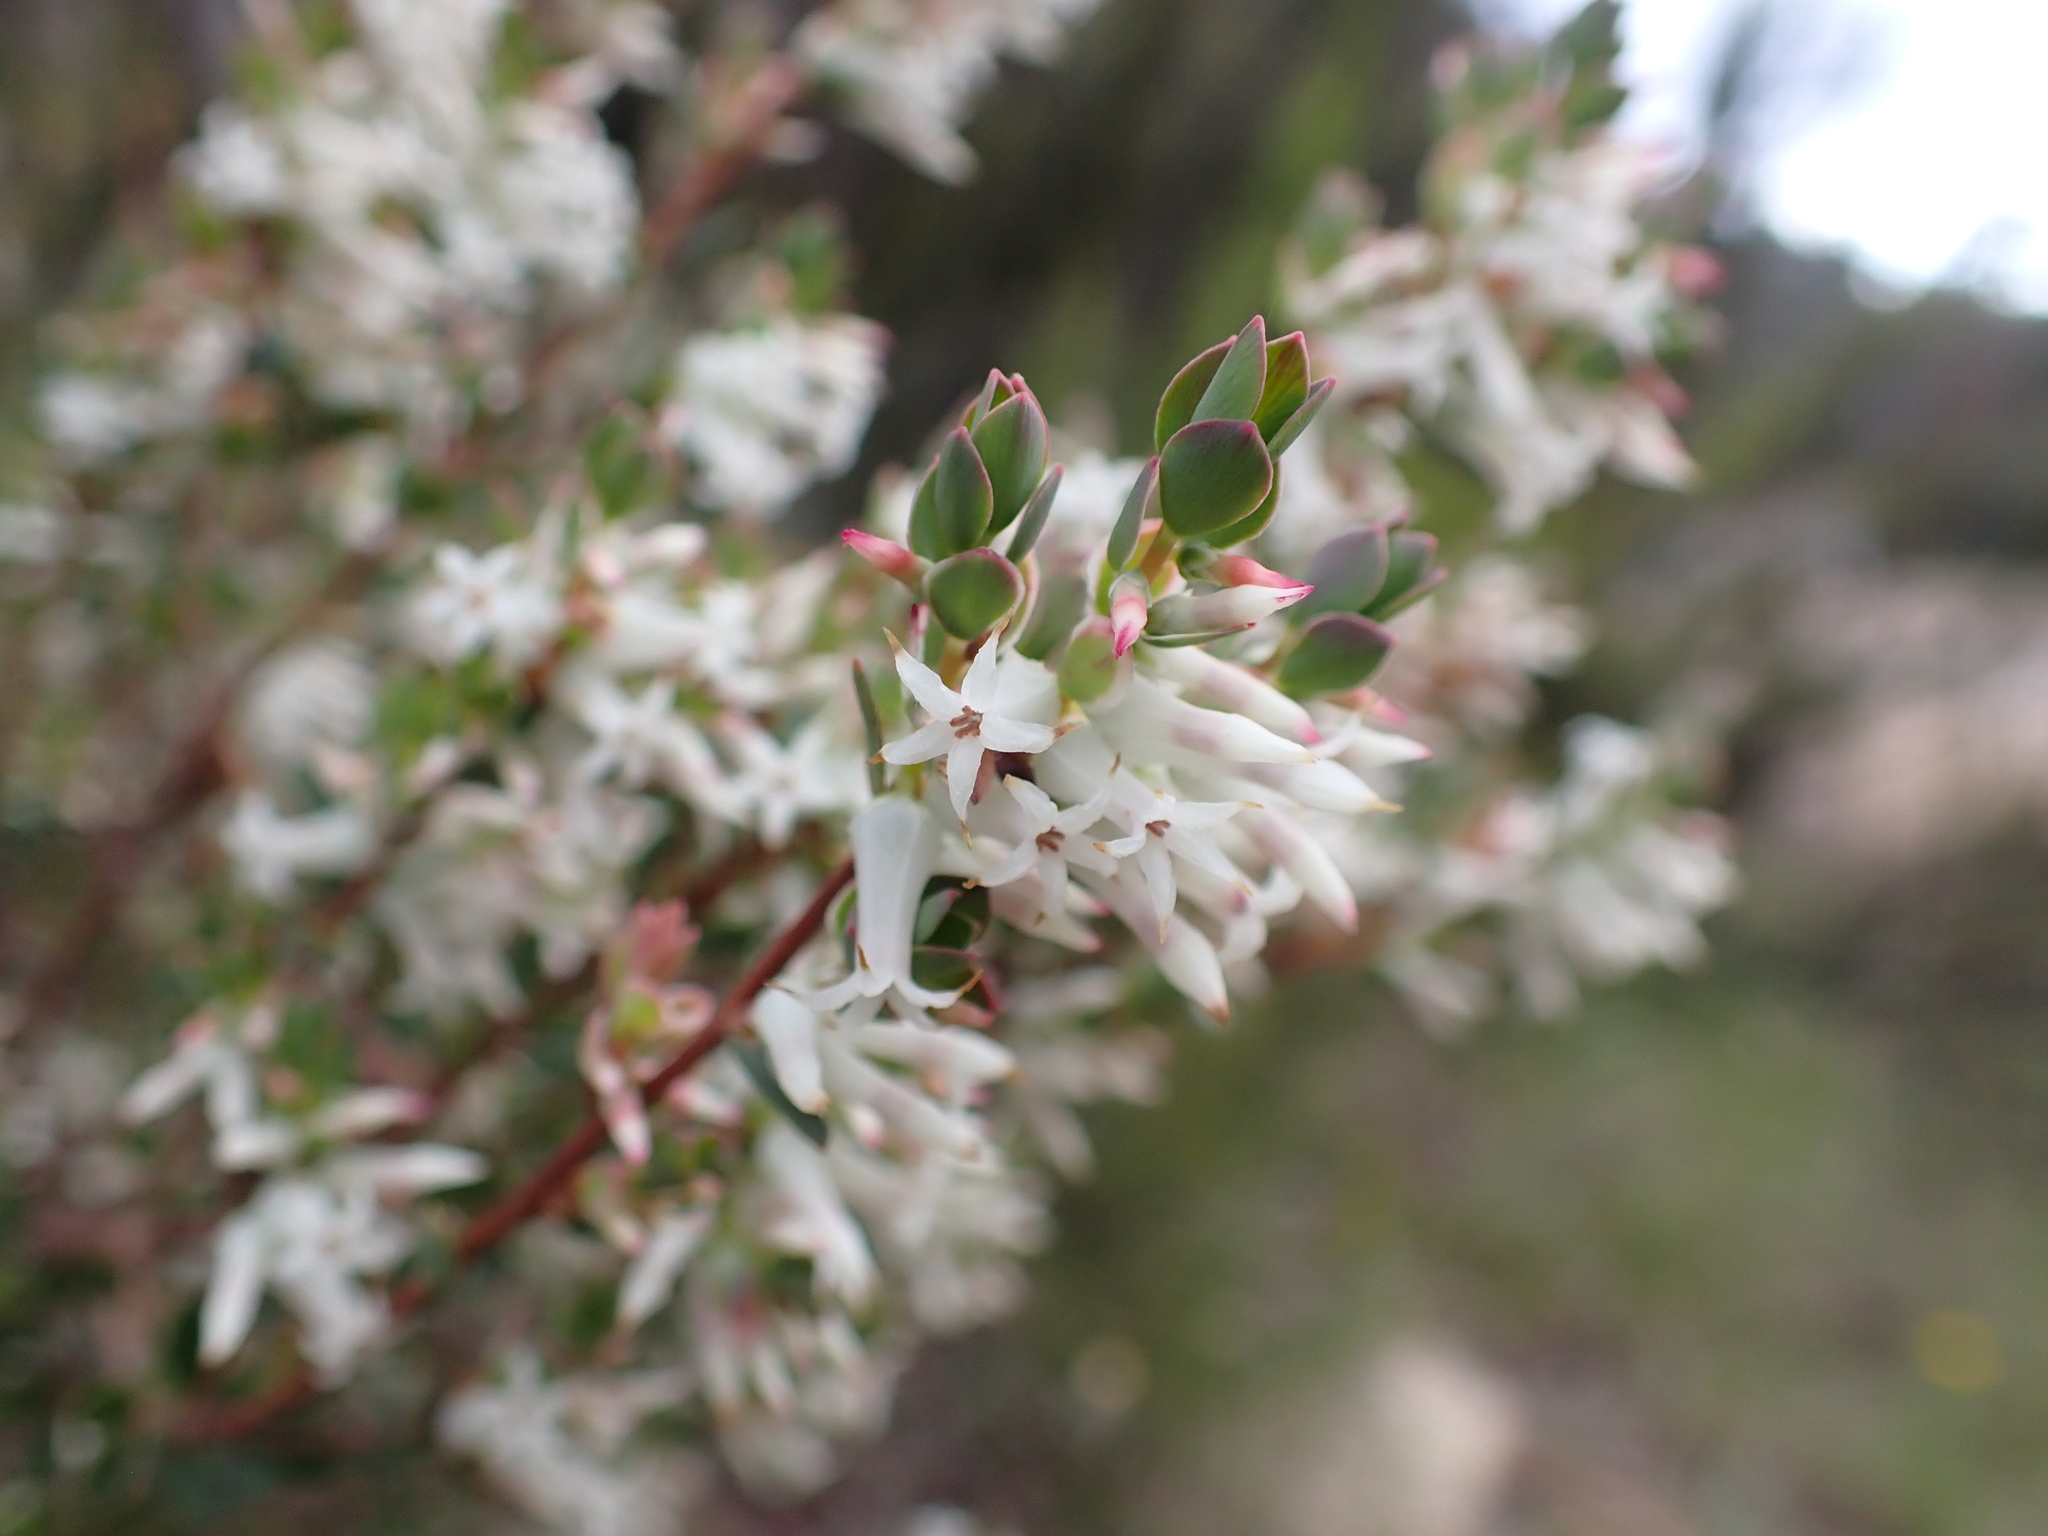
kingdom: Plantae
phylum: Tracheophyta
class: Magnoliopsida
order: Ericales
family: Ericaceae
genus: Brachyloma
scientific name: Brachyloma daphnoides
